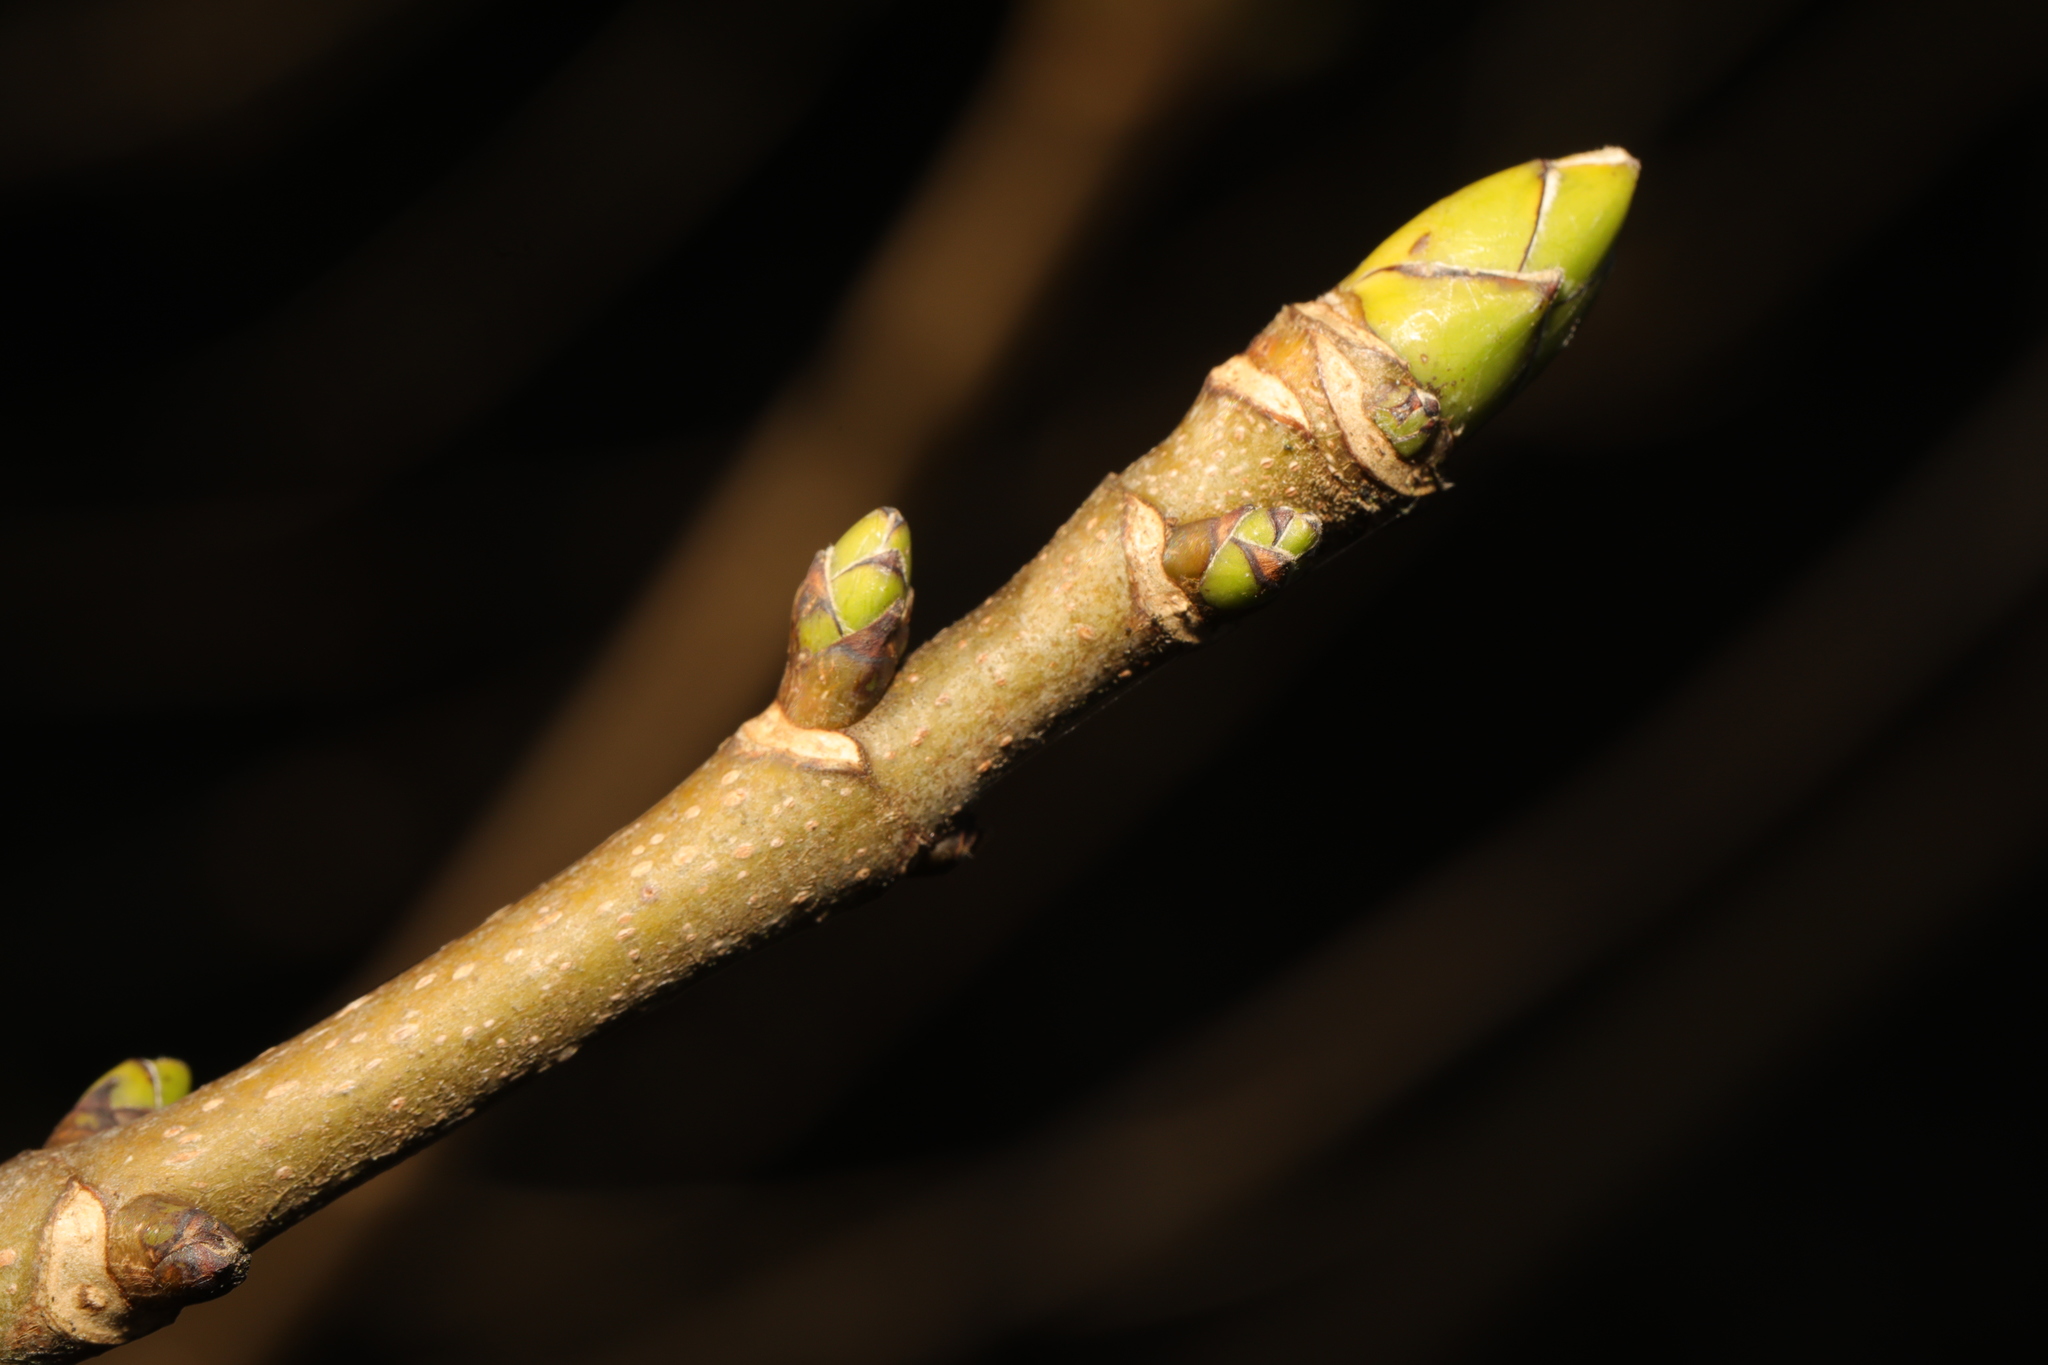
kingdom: Plantae
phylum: Tracheophyta
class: Magnoliopsida
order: Sapindales
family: Sapindaceae
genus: Acer
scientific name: Acer pseudoplatanus
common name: Sycamore
